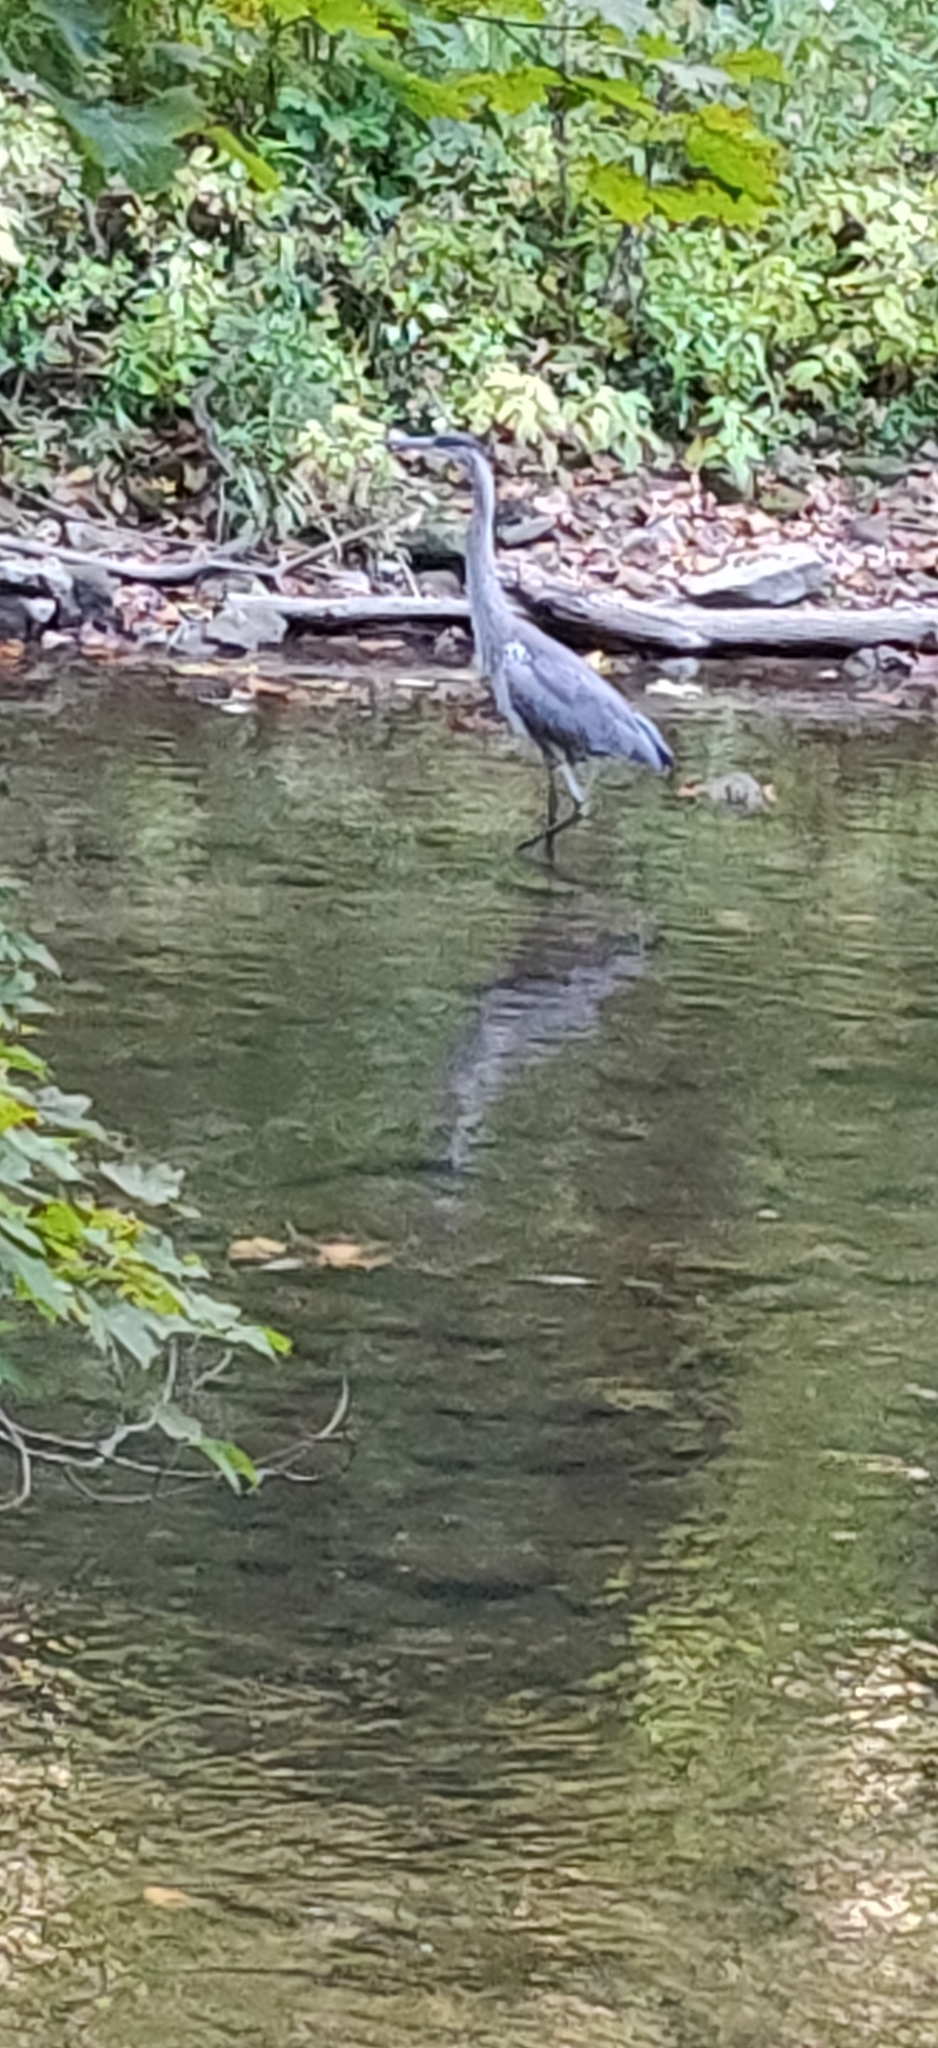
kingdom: Animalia
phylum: Chordata
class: Aves
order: Pelecaniformes
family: Ardeidae
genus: Ardea
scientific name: Ardea herodias
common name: Great blue heron
